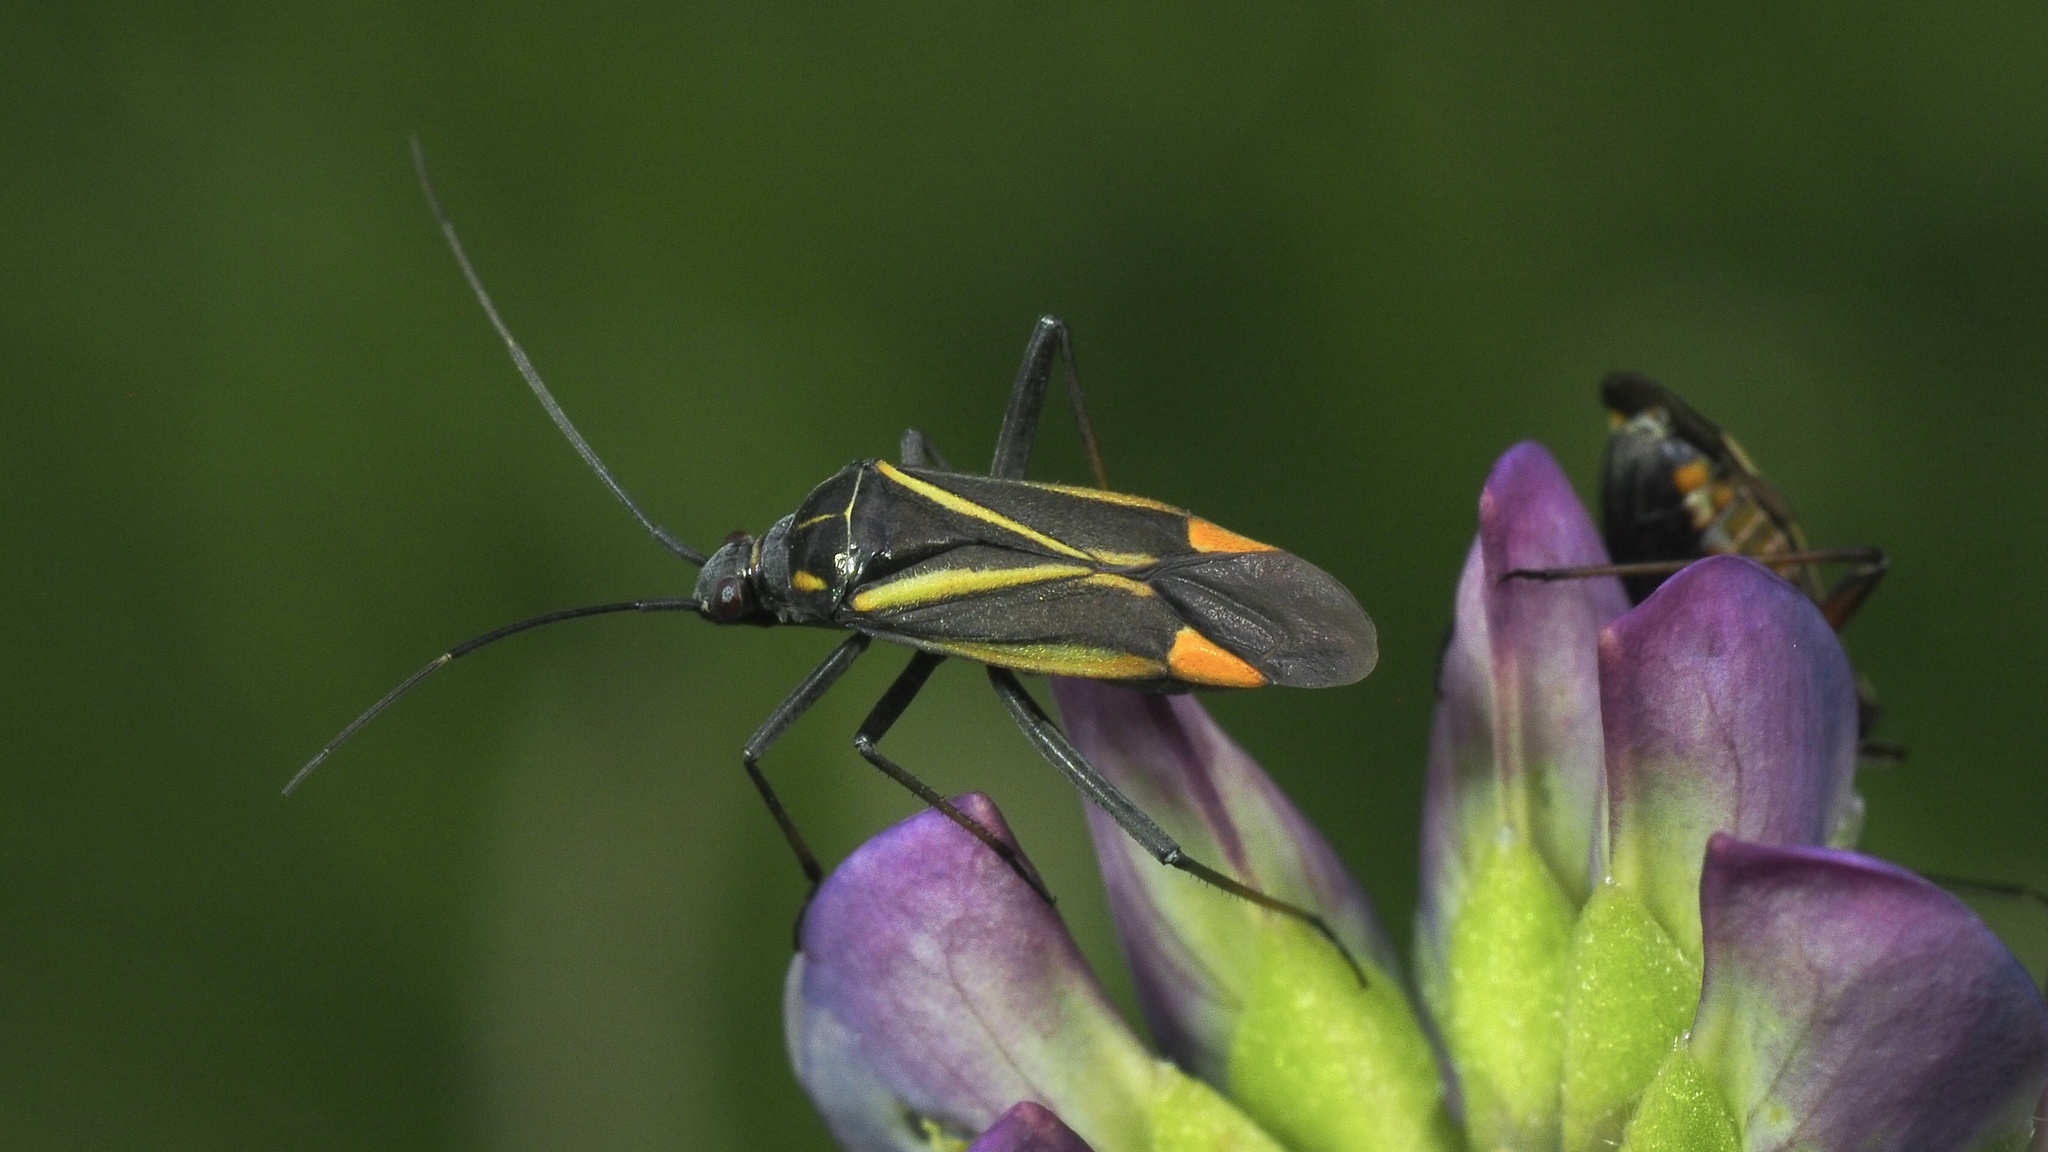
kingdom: Animalia
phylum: Arthropoda
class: Insecta
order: Hemiptera
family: Miridae
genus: Hadrodemus
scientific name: Hadrodemus m-flavum
